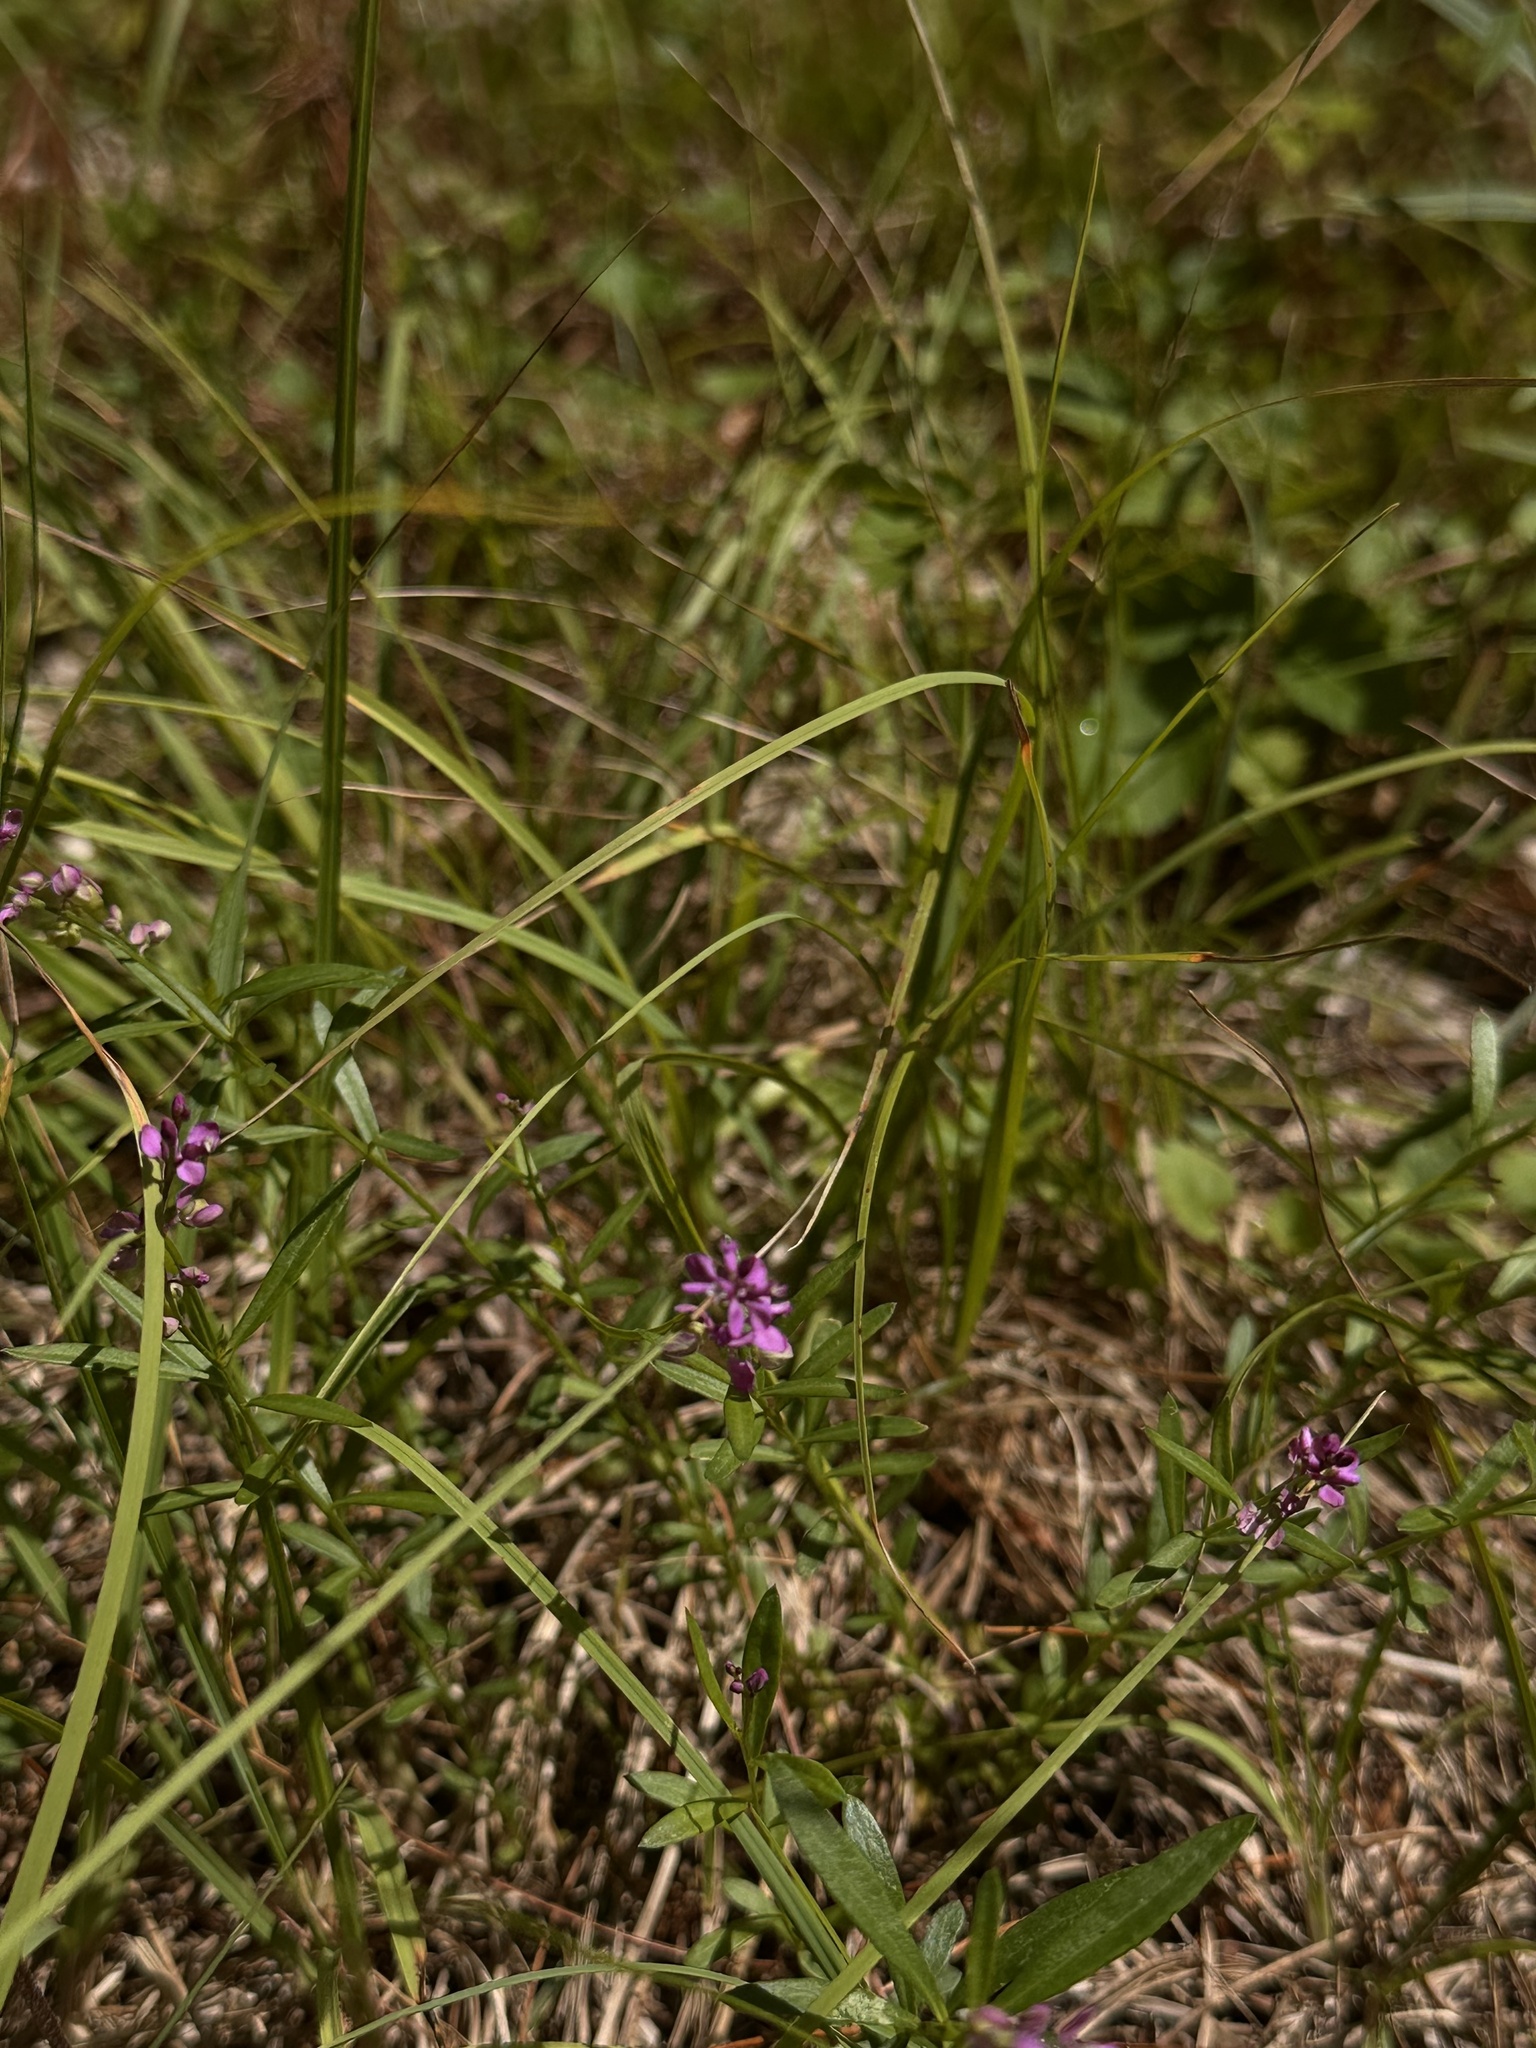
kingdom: Plantae
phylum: Tracheophyta
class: Magnoliopsida
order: Fabales
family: Polygalaceae
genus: Polygala
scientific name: Polygala polygama
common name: Bitter milkwort
